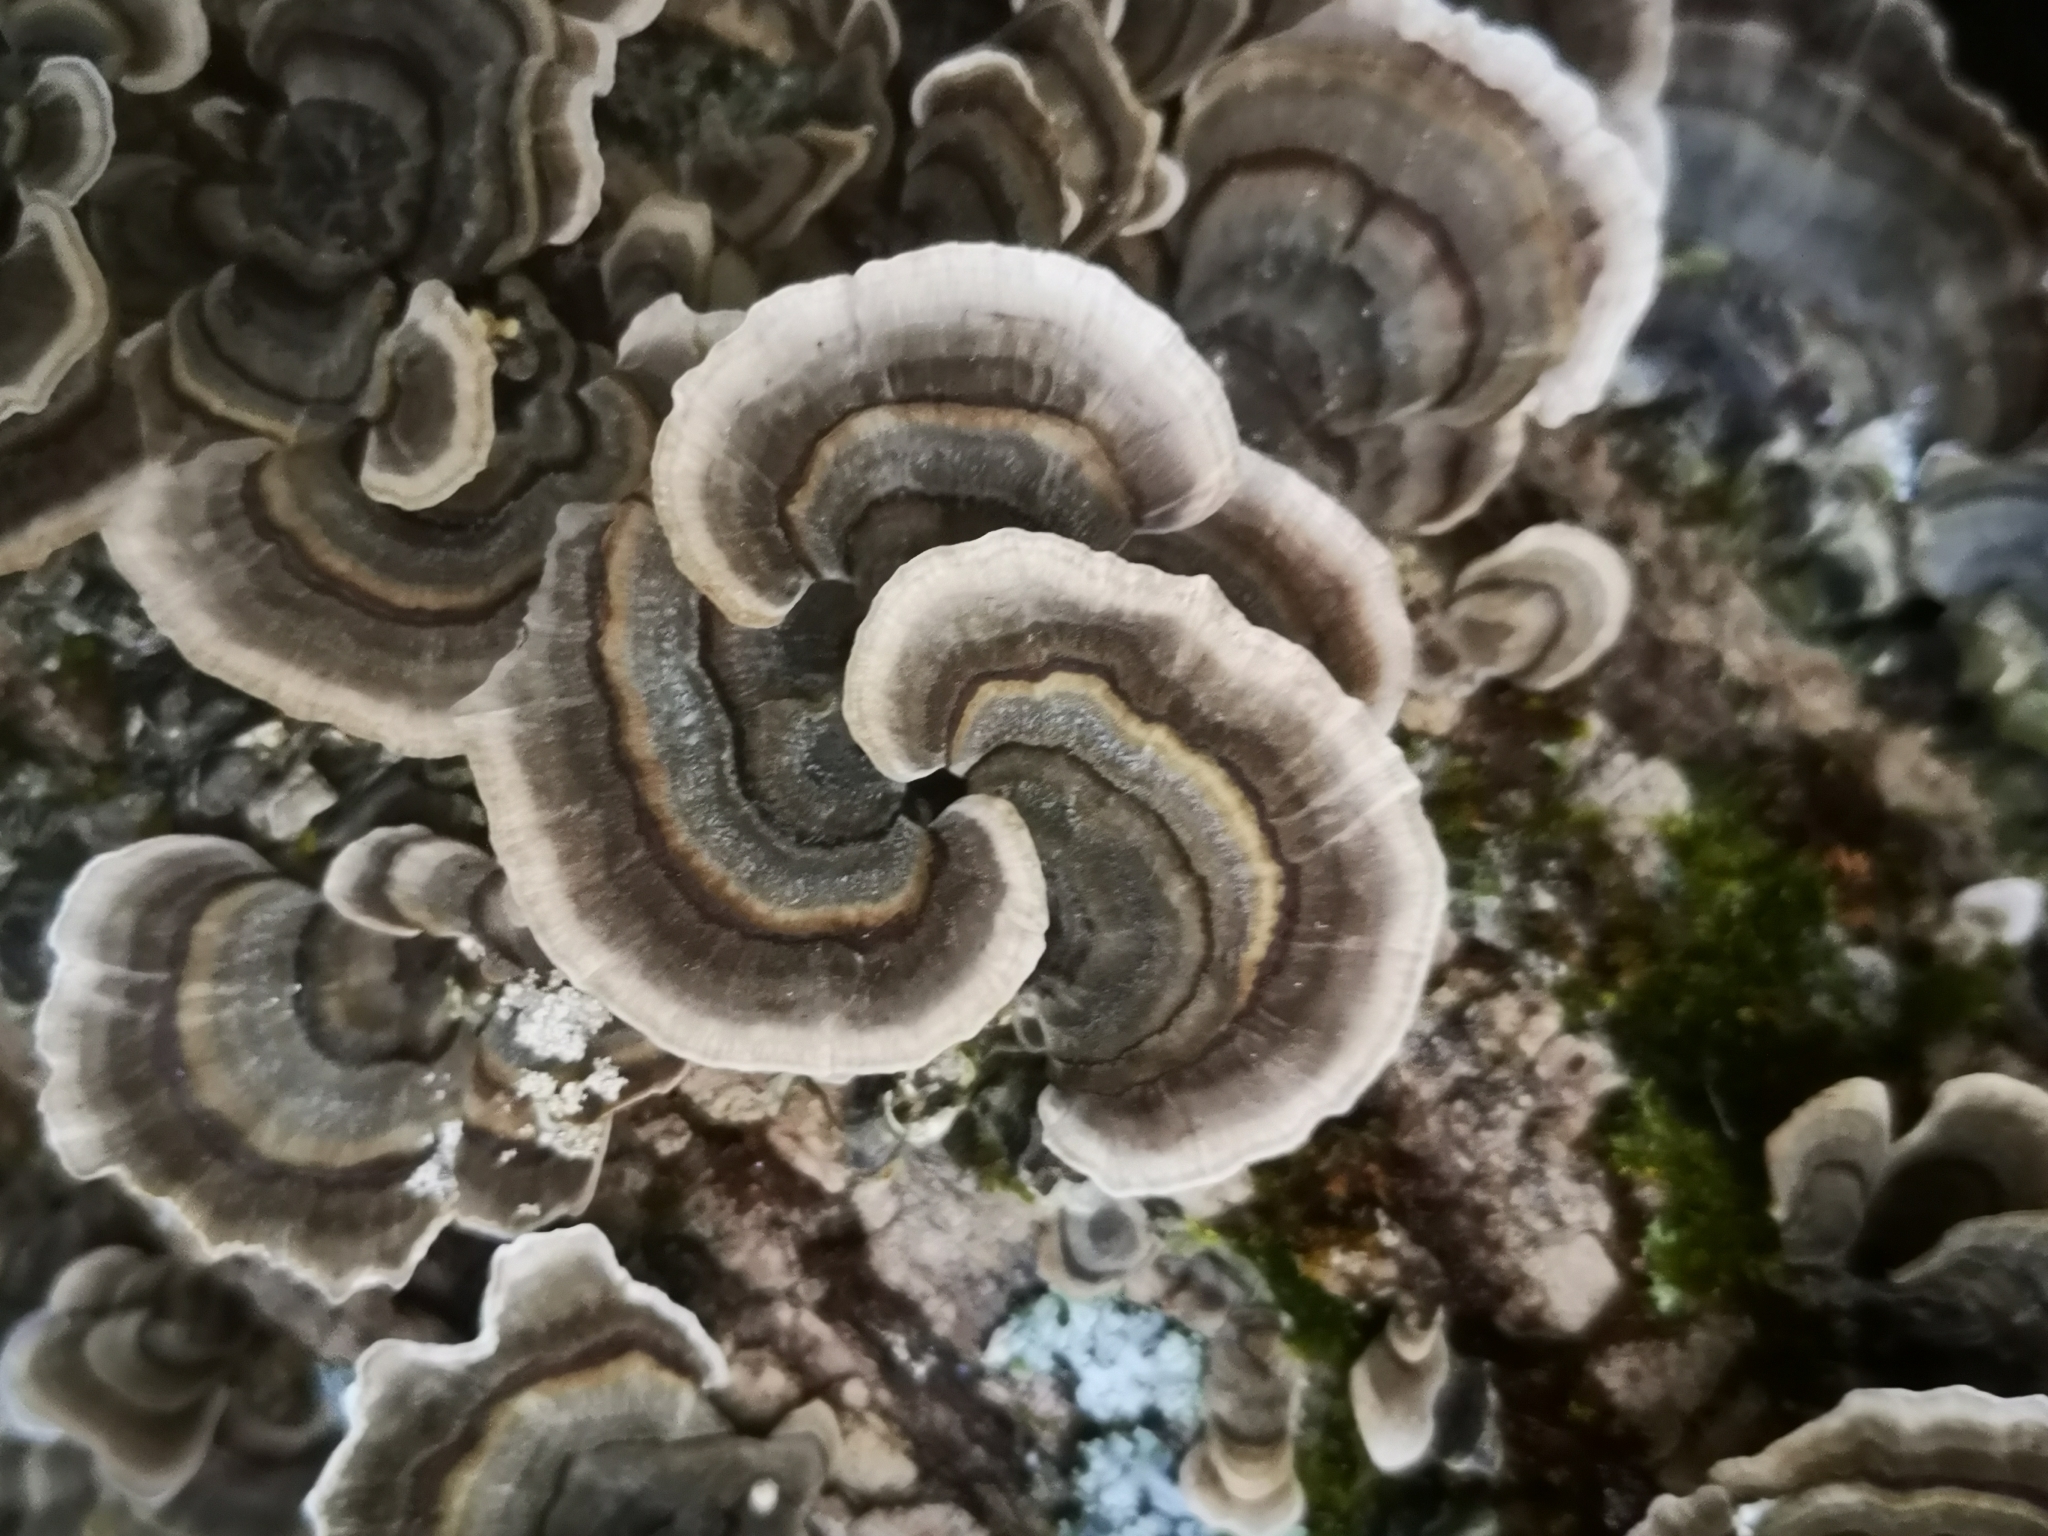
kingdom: Fungi
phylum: Basidiomycota
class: Agaricomycetes
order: Polyporales
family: Polyporaceae
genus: Trametes
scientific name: Trametes versicolor
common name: Turkeytail
